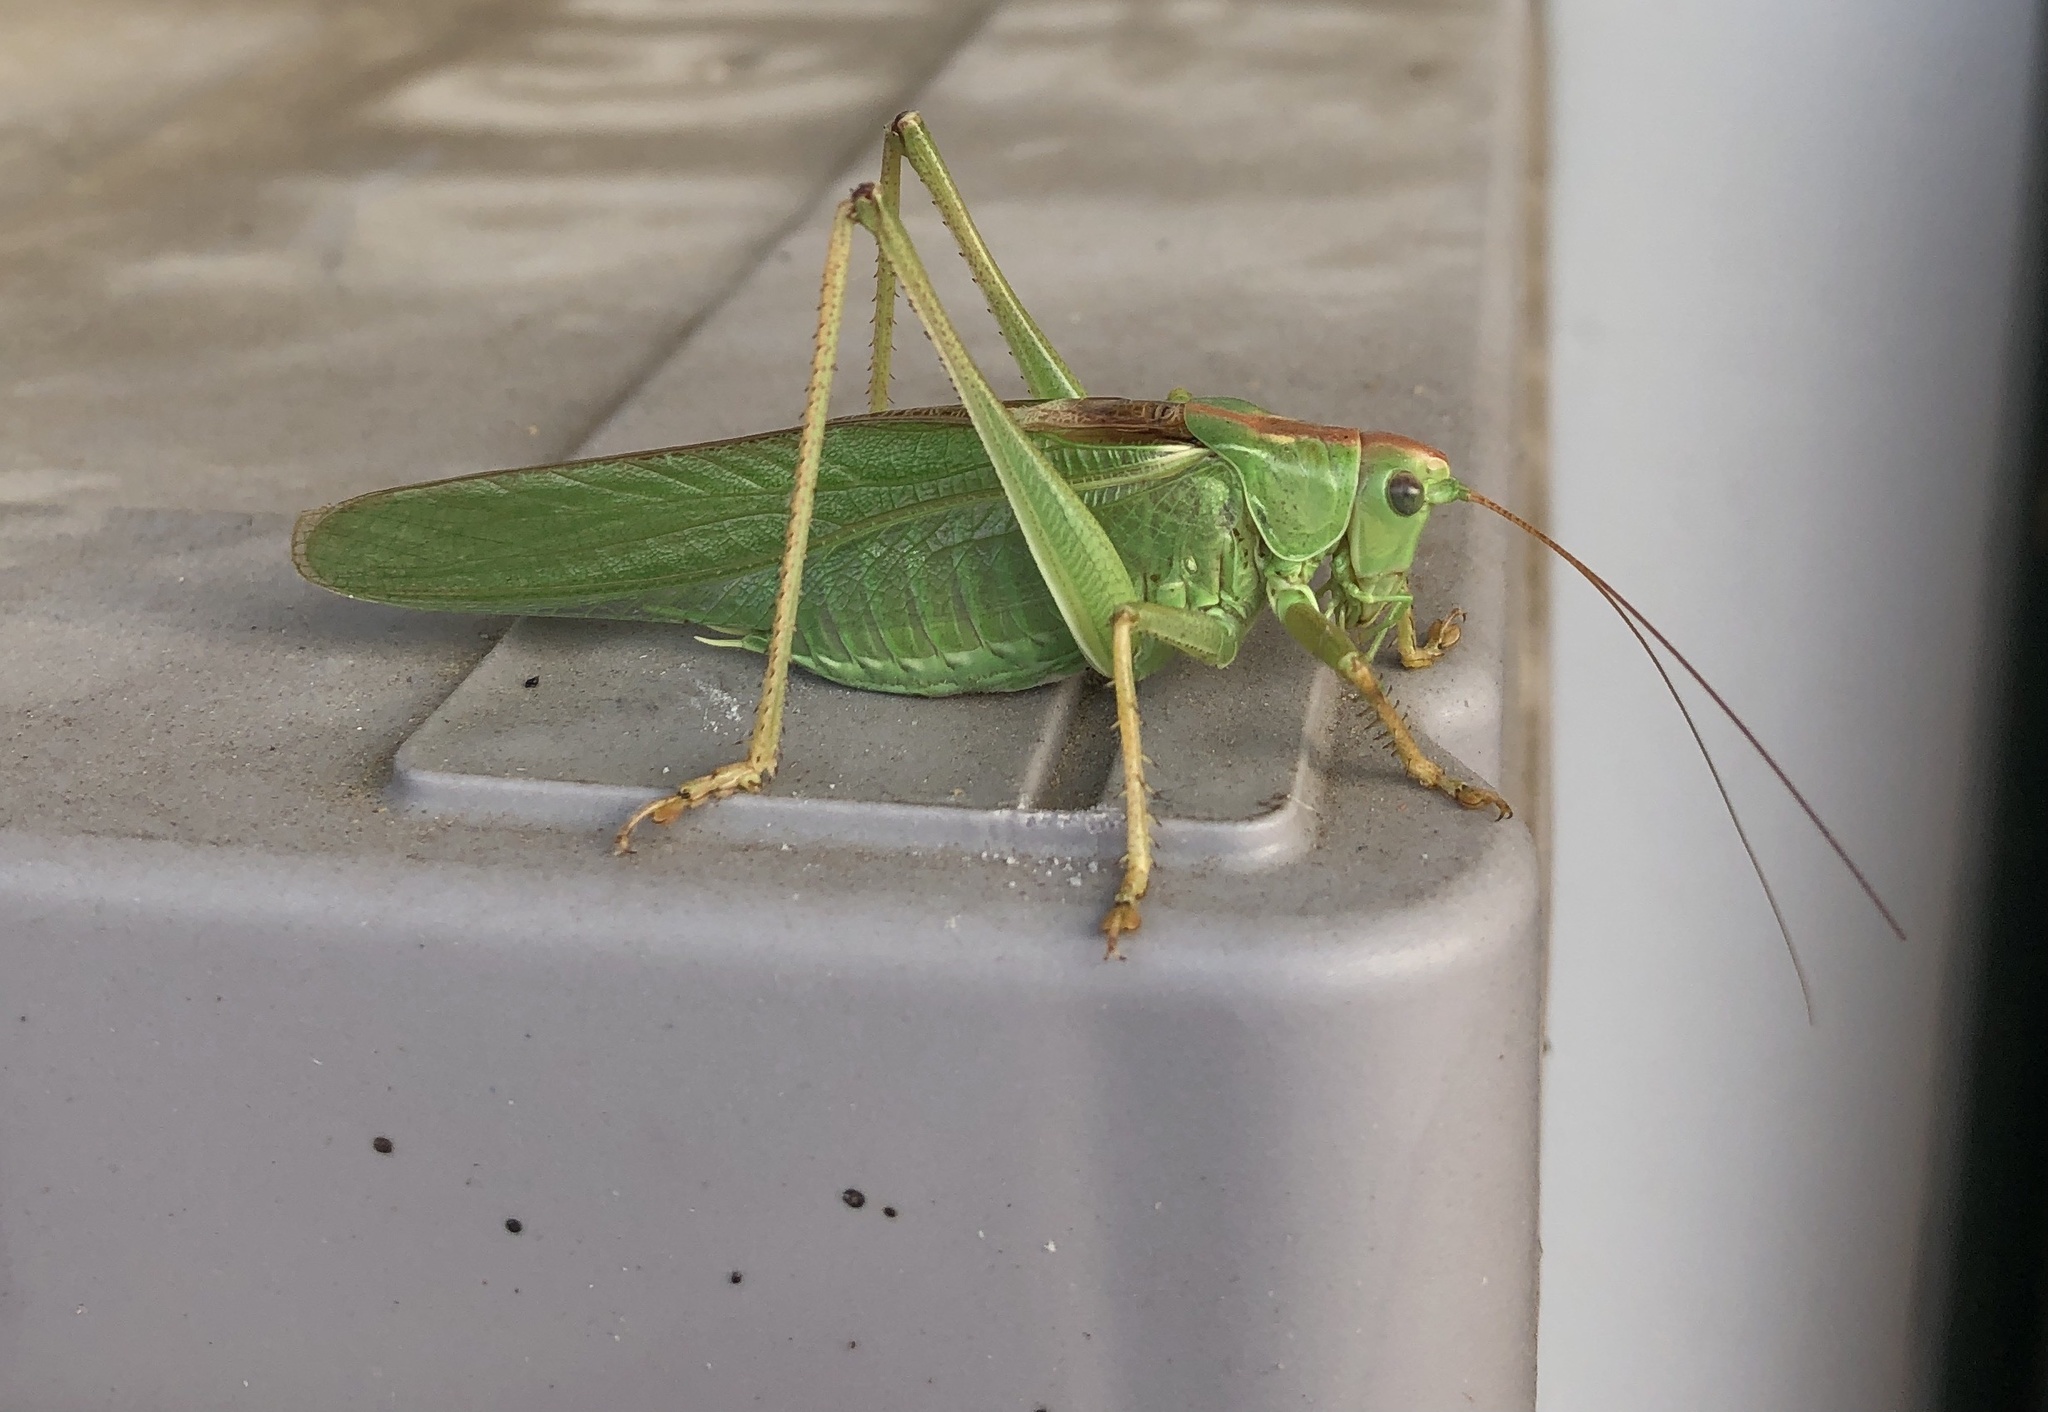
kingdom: Animalia
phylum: Arthropoda
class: Insecta
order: Orthoptera
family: Tettigoniidae
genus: Tettigonia
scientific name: Tettigonia viridissima
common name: Great green bush-cricket
